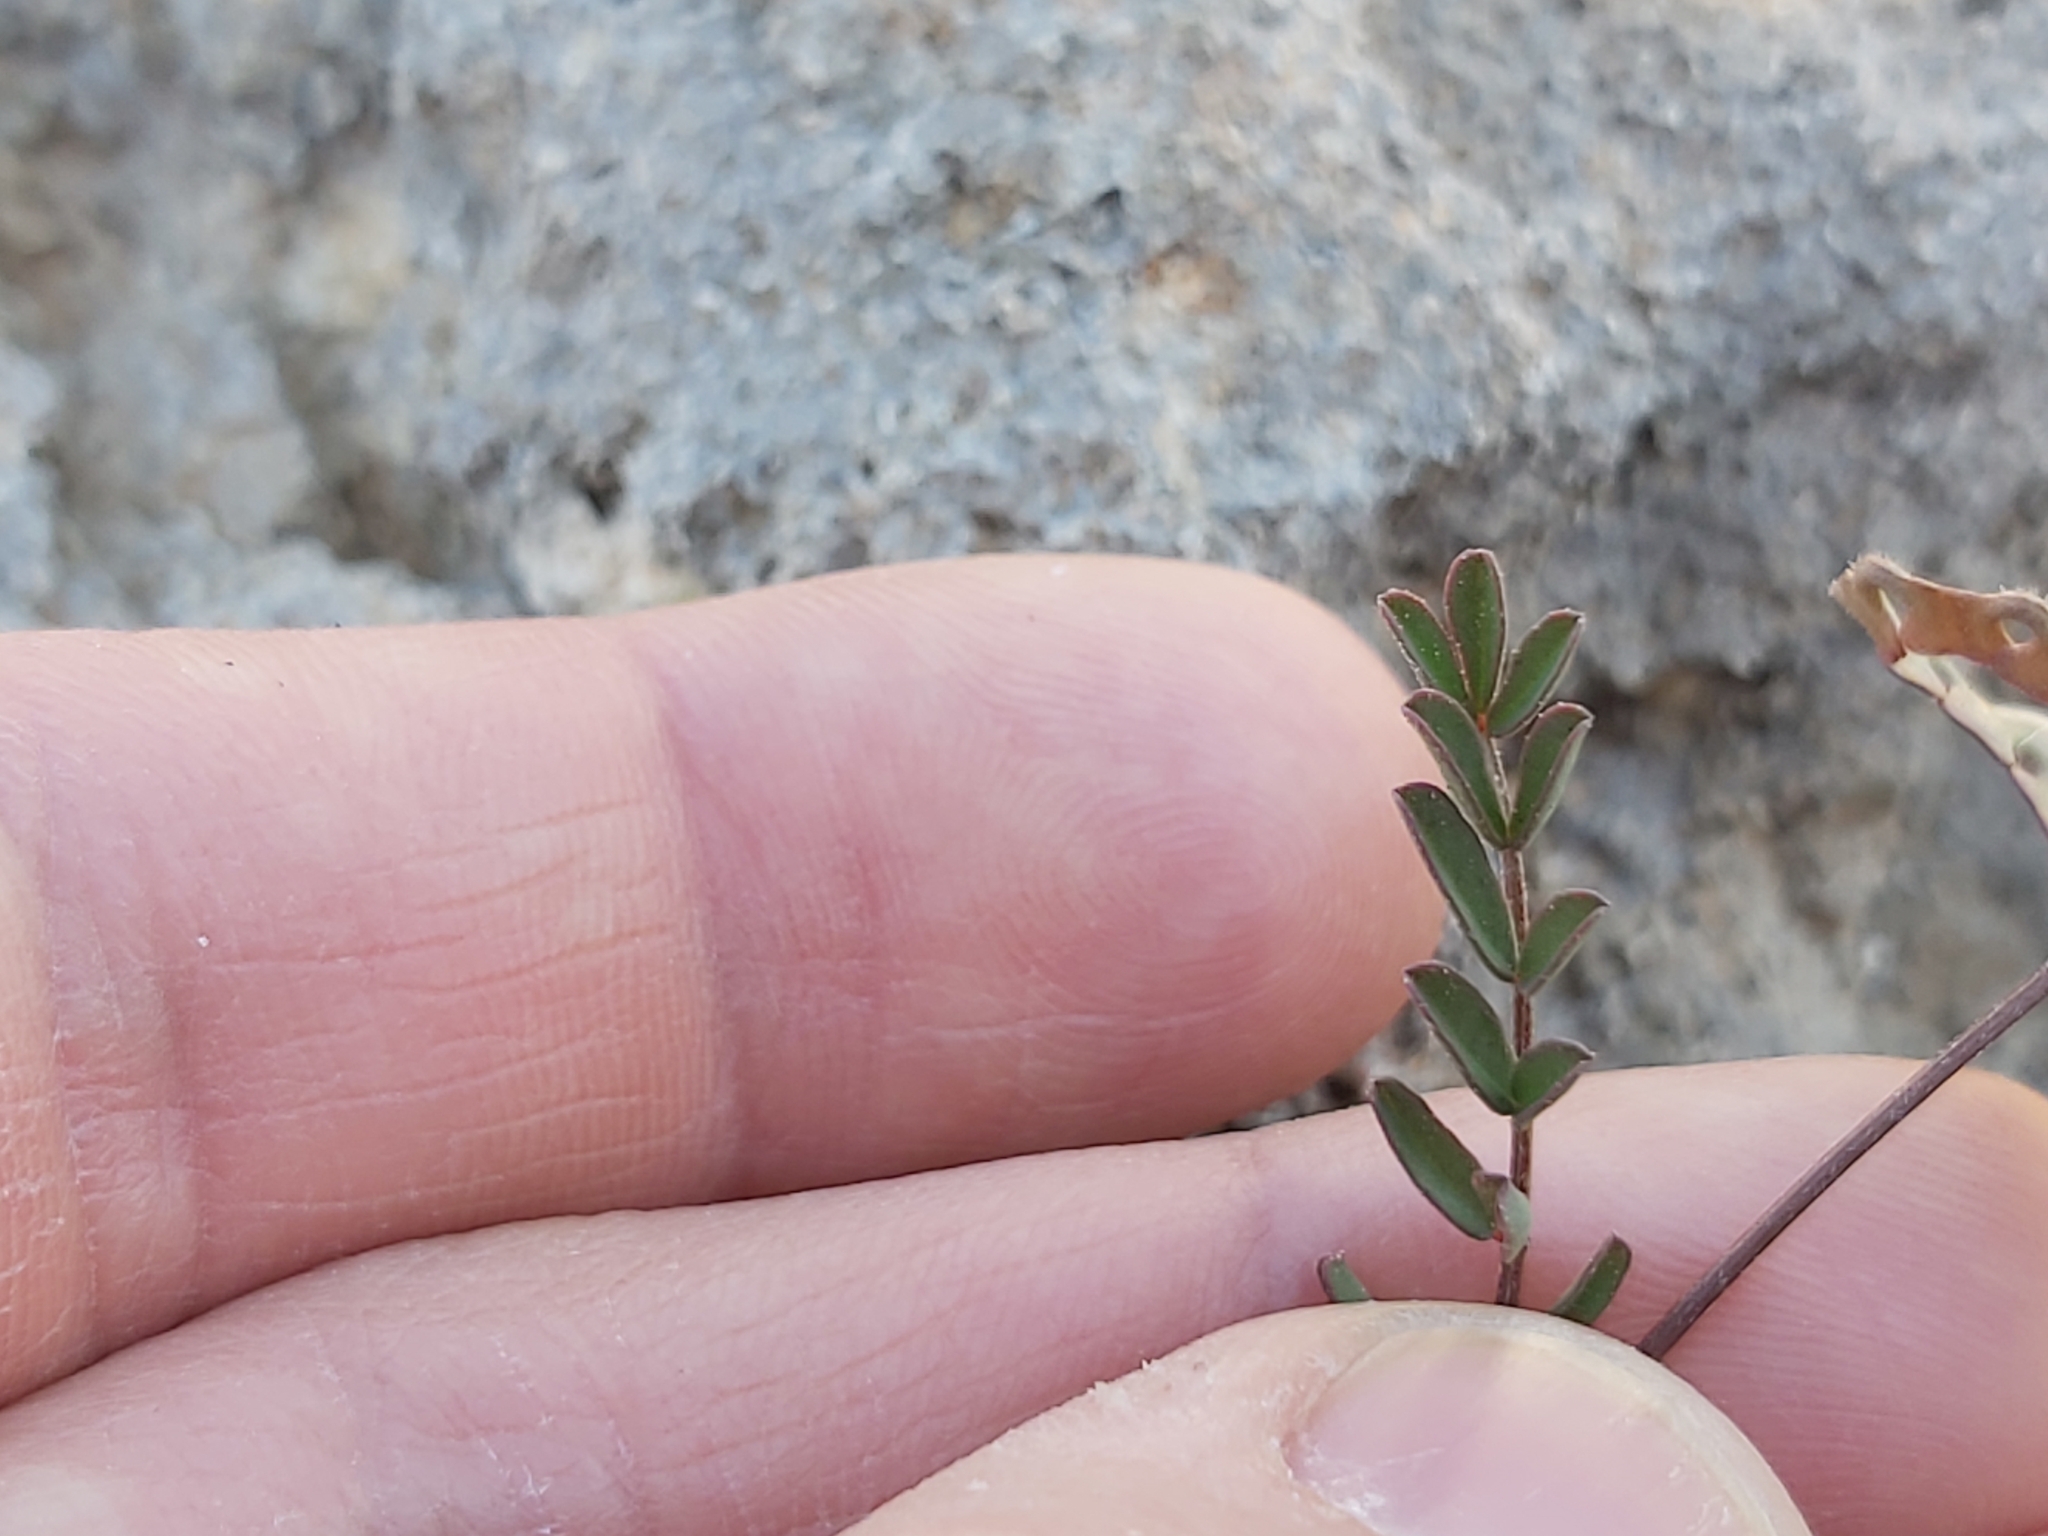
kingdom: Plantae
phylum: Tracheophyta
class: Magnoliopsida
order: Fabales
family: Fabaceae
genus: Hippocrepis
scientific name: Hippocrepis ciliata
